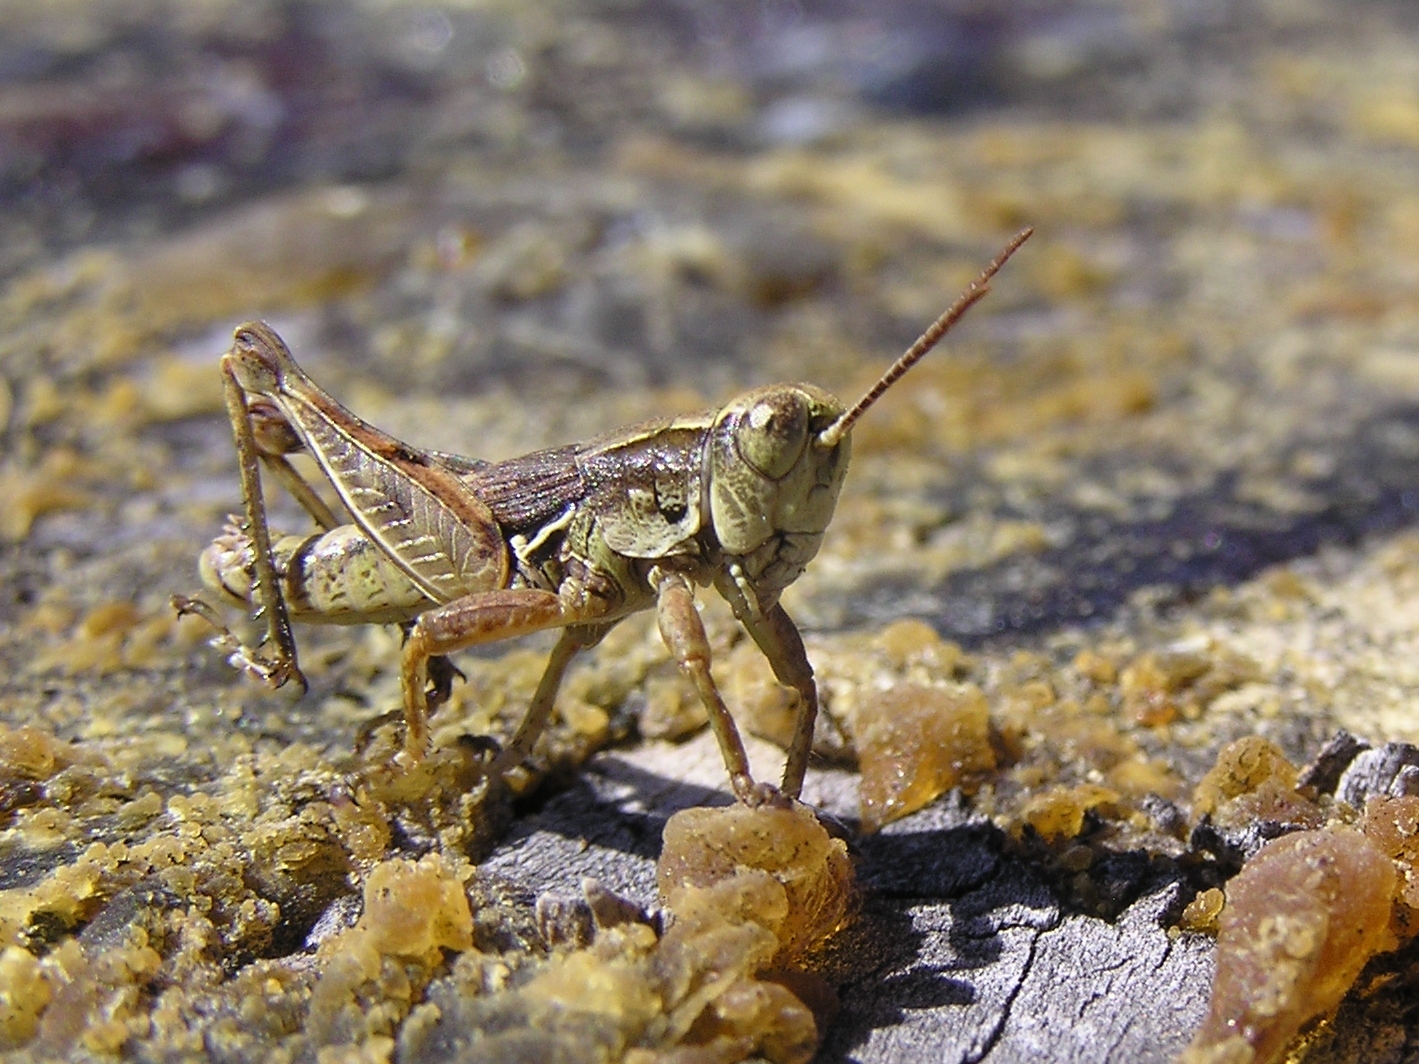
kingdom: Animalia
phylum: Arthropoda
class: Insecta
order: Orthoptera
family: Acrididae
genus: Phaulacridium
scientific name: Phaulacridium marginale
